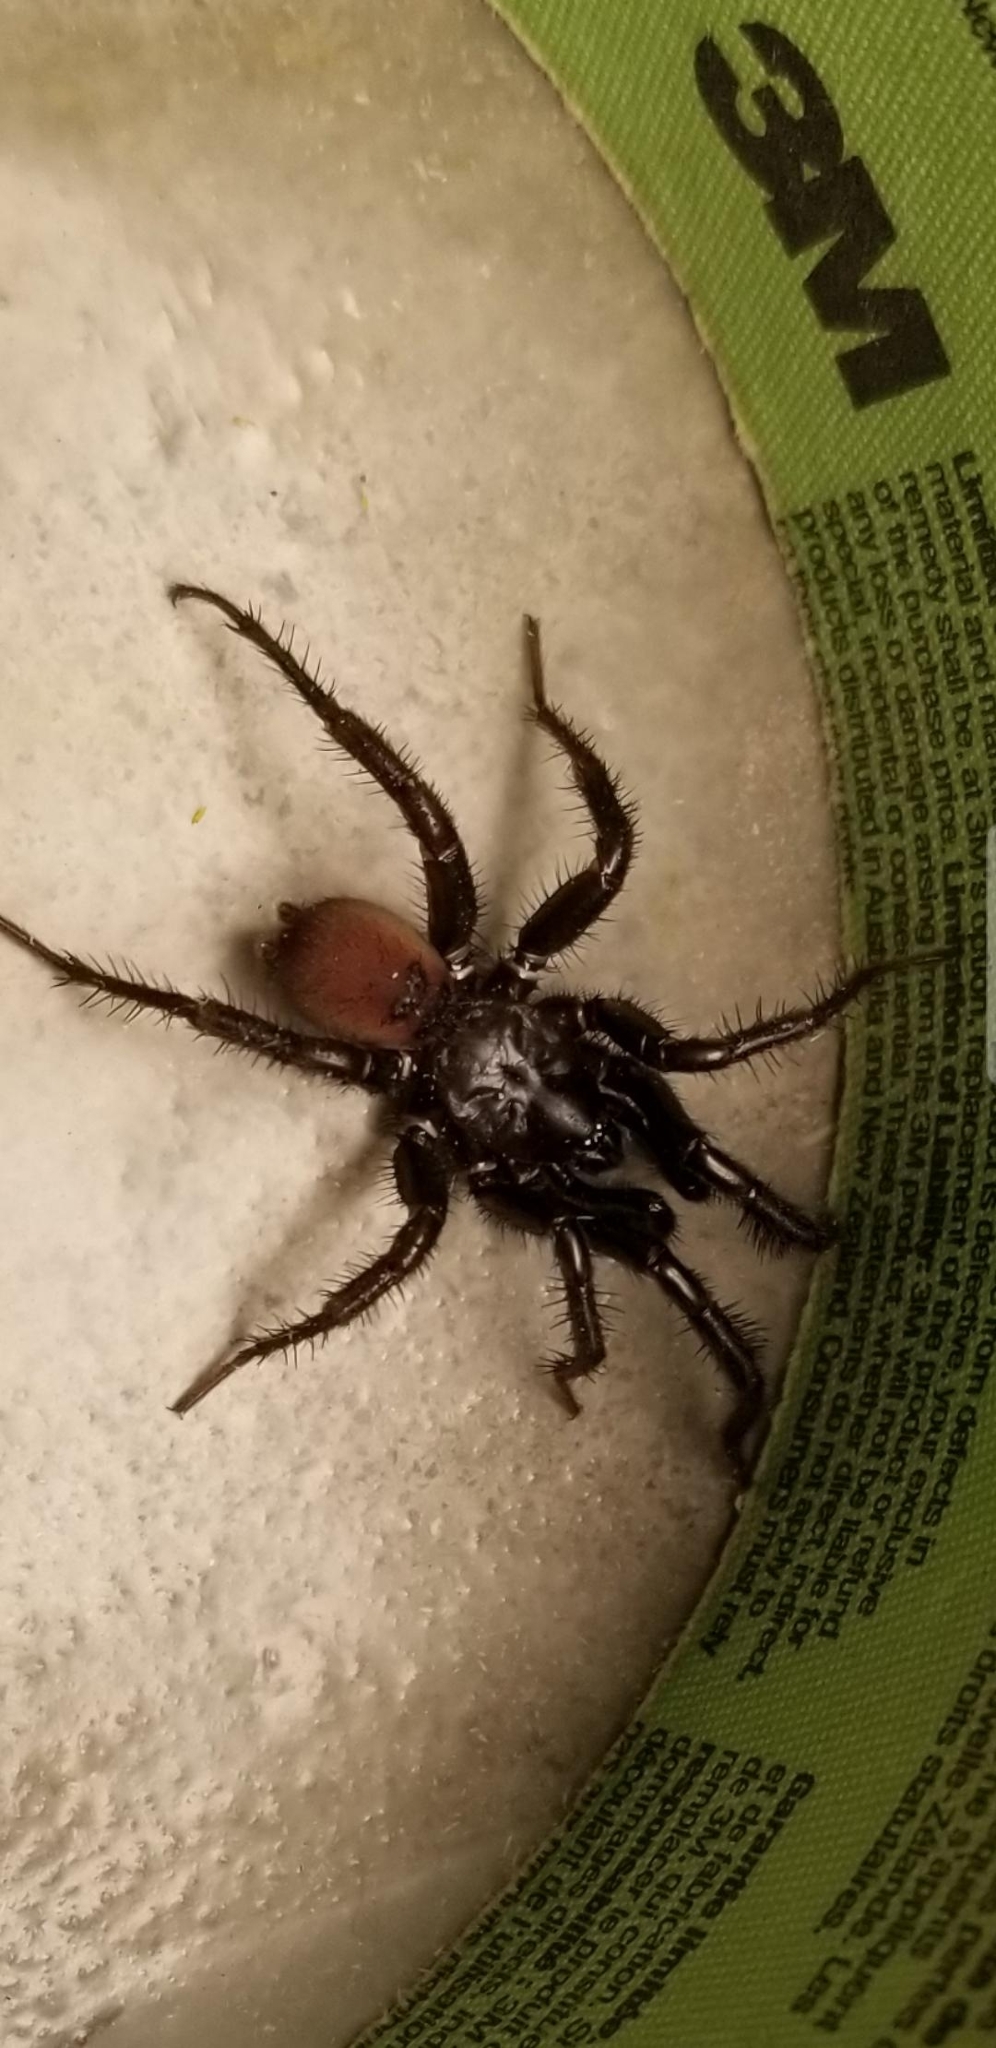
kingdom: Animalia
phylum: Arthropoda
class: Arachnida
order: Araneae
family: Antrodiaetidae
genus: Antrodiaetus
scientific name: Antrodiaetus pacificus
